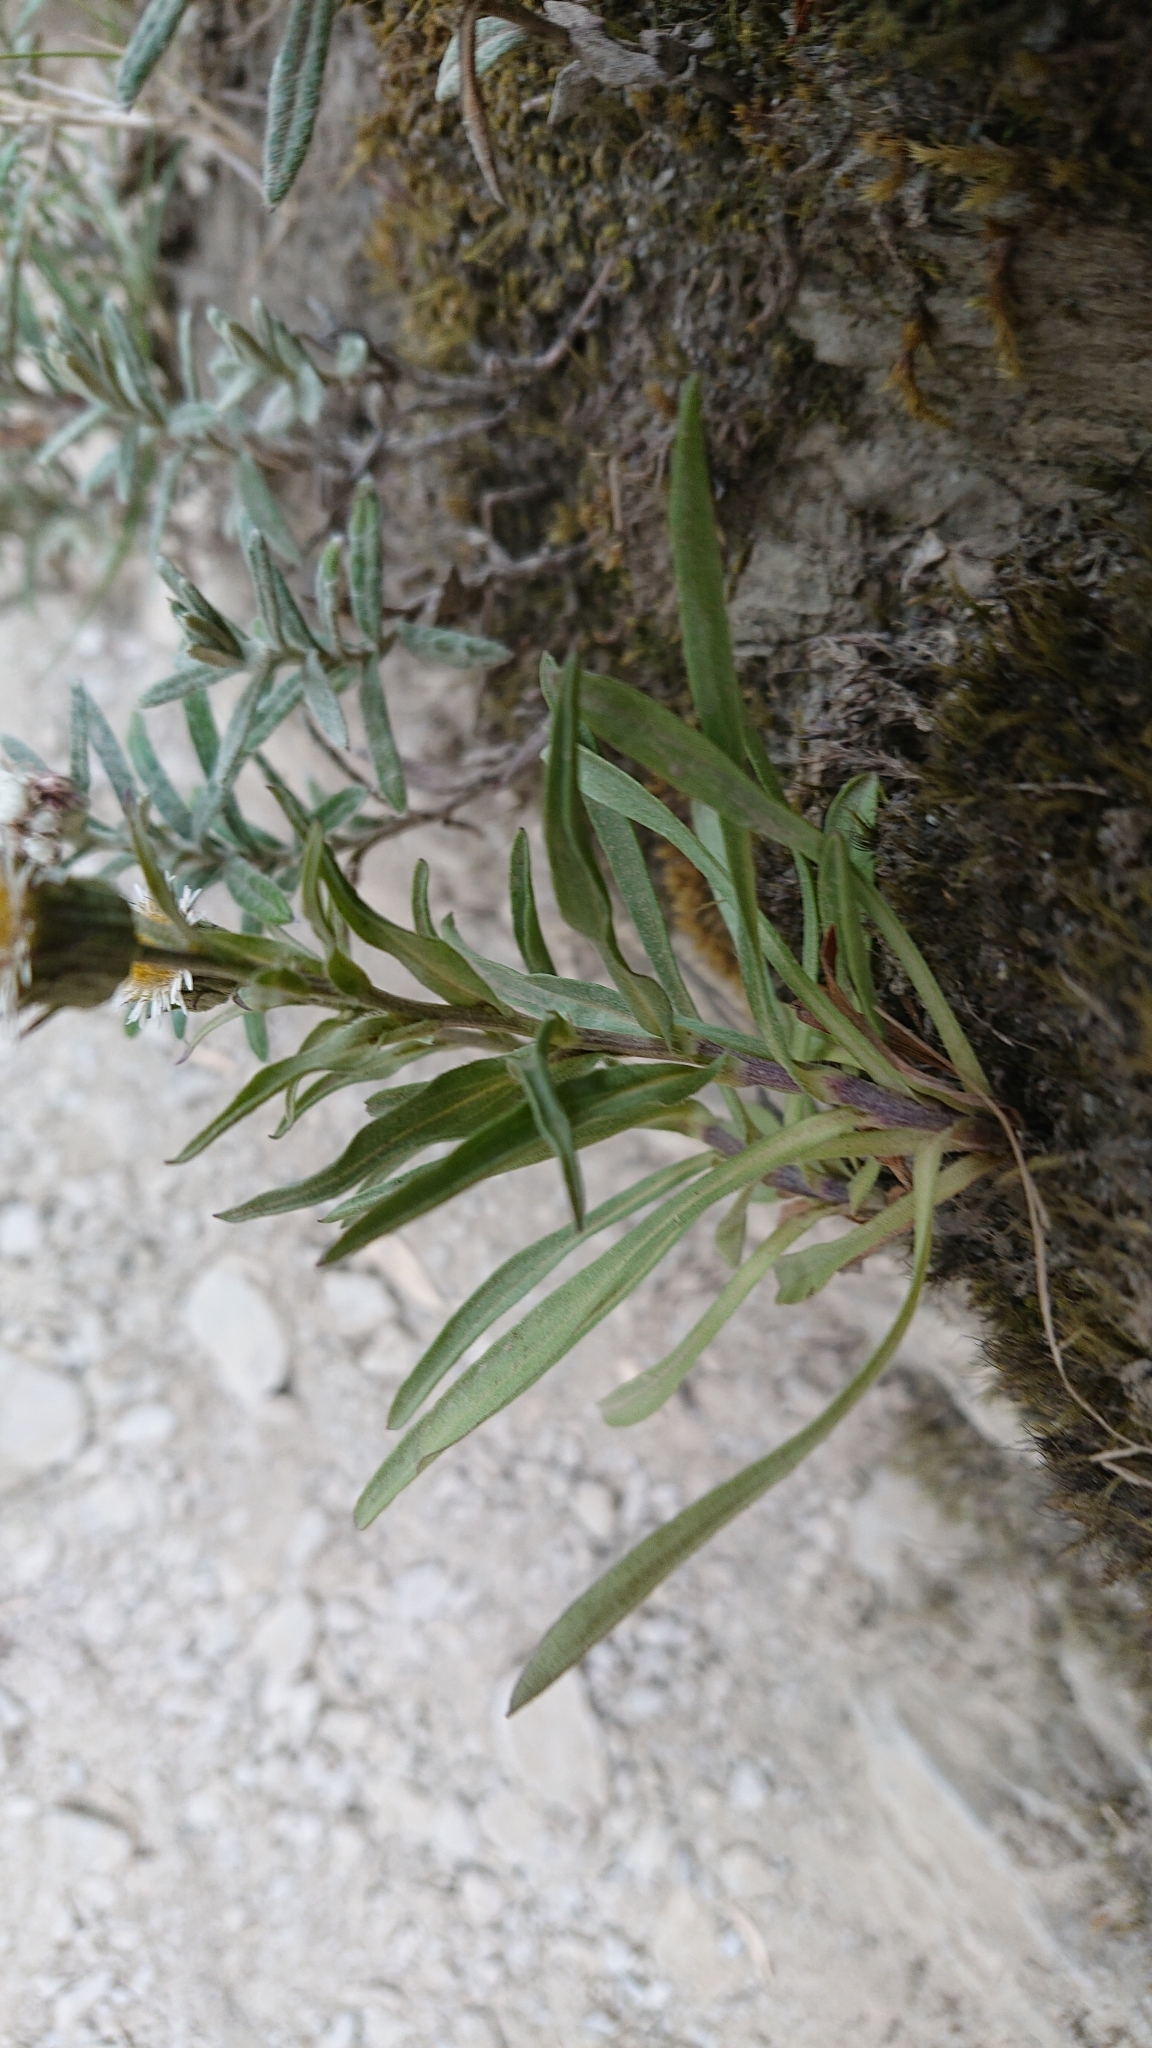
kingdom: Plantae
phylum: Tracheophyta
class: Magnoliopsida
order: Asterales
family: Asteraceae
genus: Erigeron
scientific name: Erigeron morrisonensis
